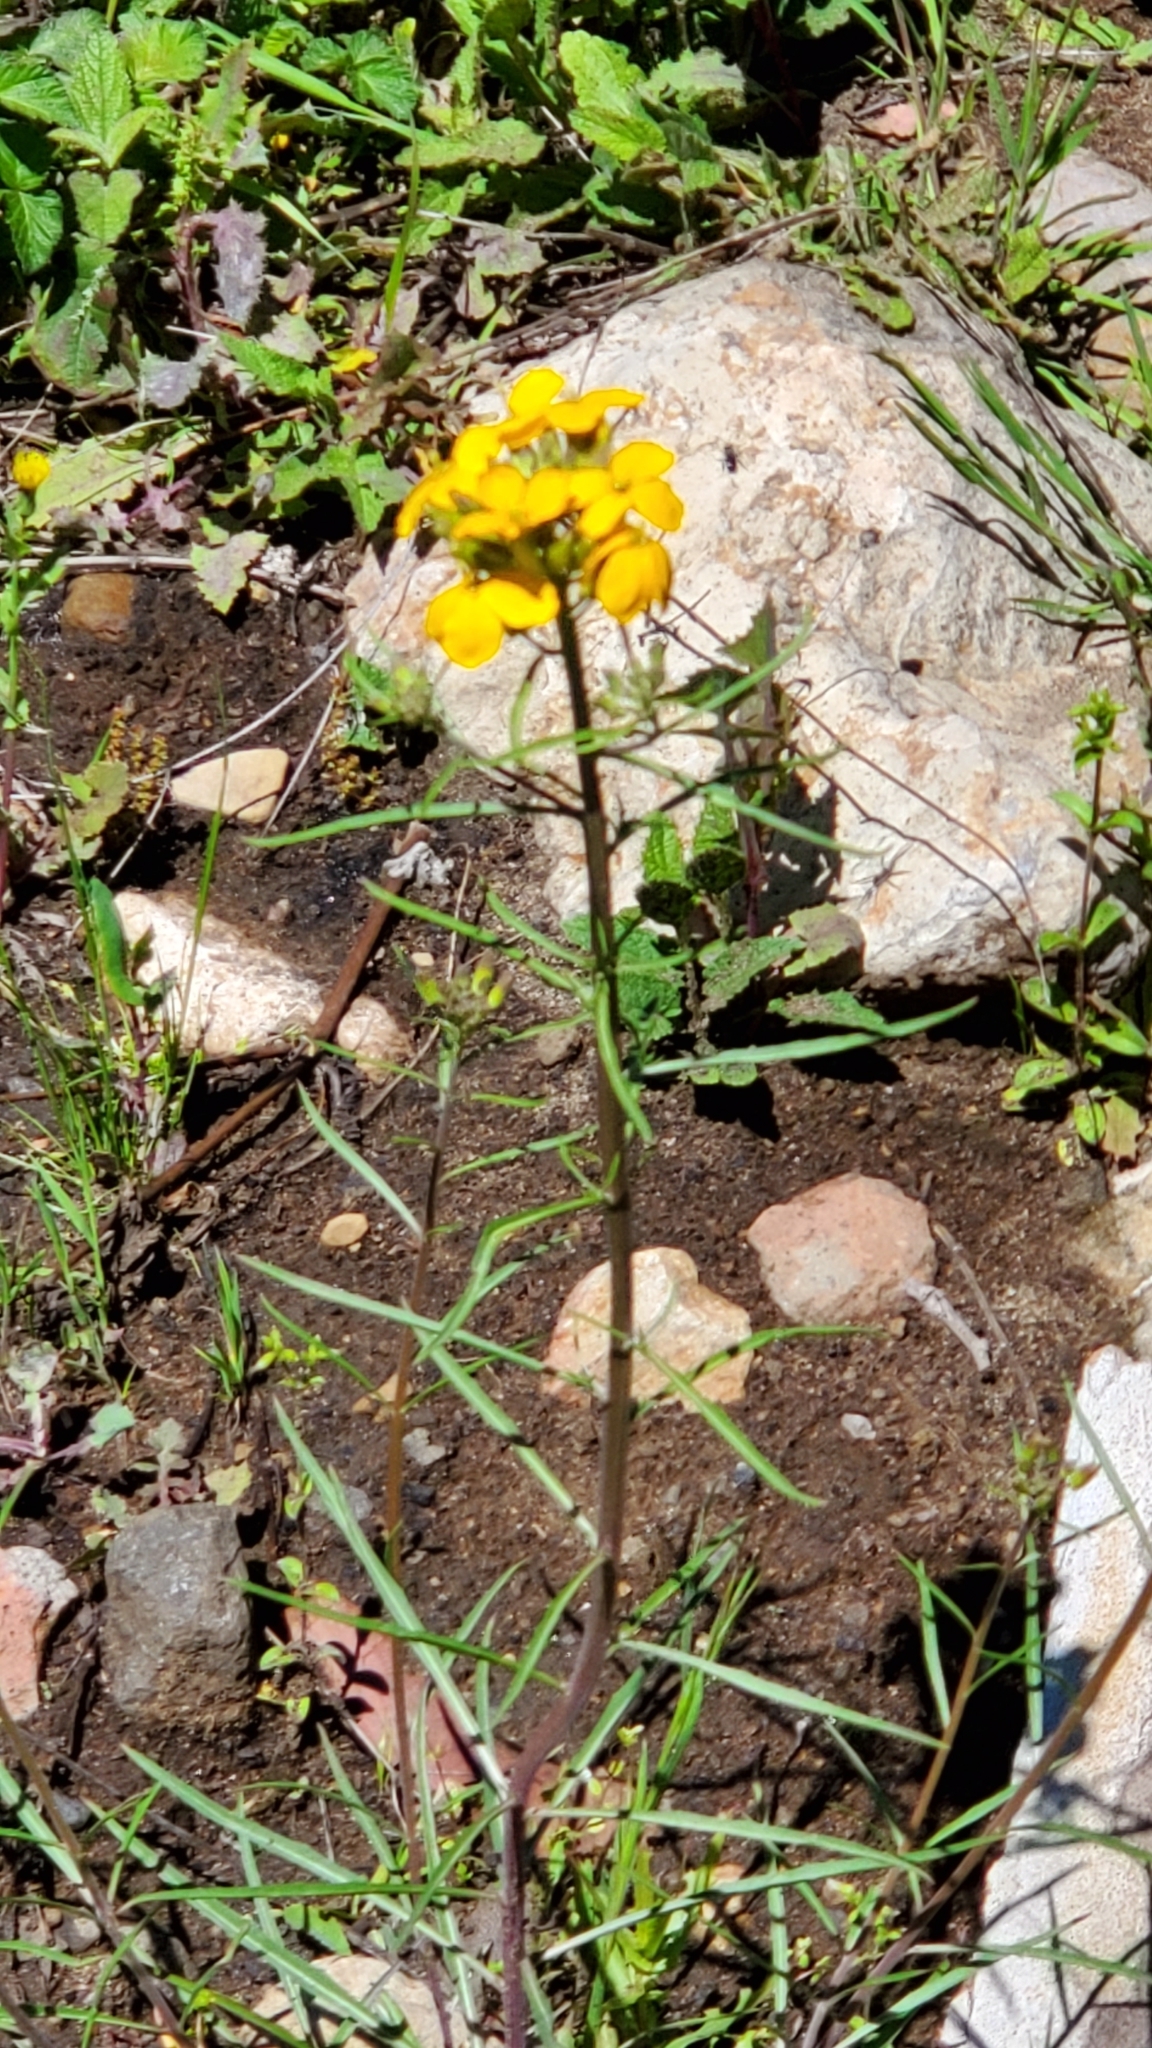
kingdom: Plantae
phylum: Tracheophyta
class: Magnoliopsida
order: Brassicales
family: Brassicaceae
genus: Erysimum
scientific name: Erysimum capitatum
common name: Western wallflower
